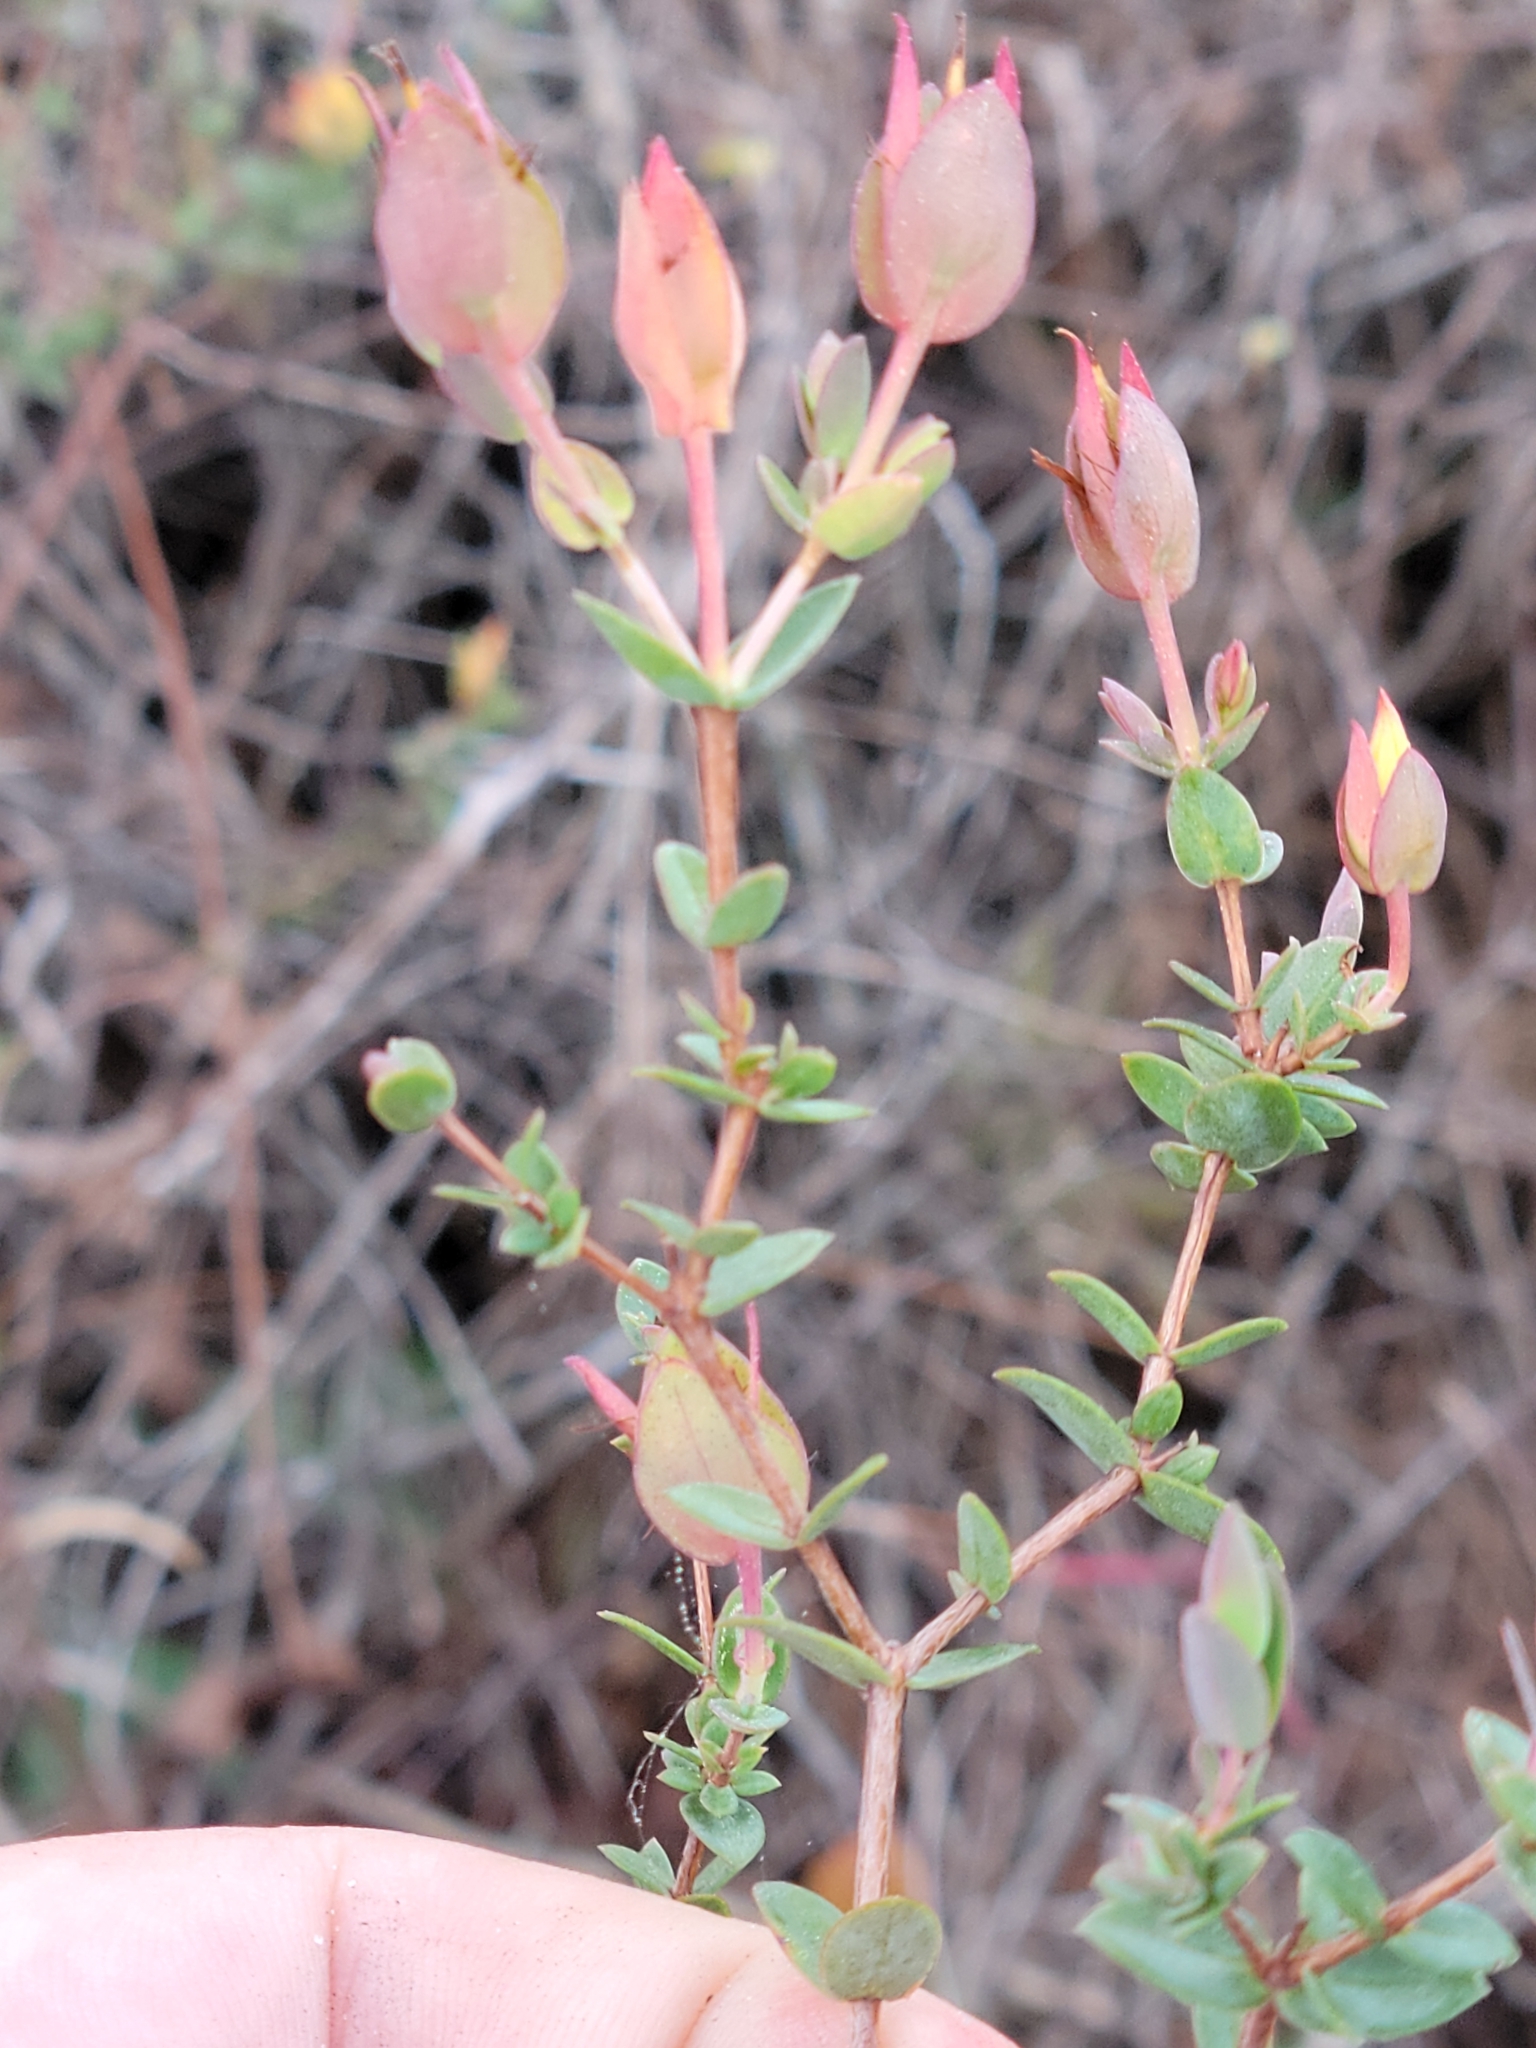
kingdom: Plantae
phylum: Tracheophyta
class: Magnoliopsida
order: Malpighiales
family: Hypericaceae
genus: Hypericum
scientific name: Hypericum tetrapetalum
